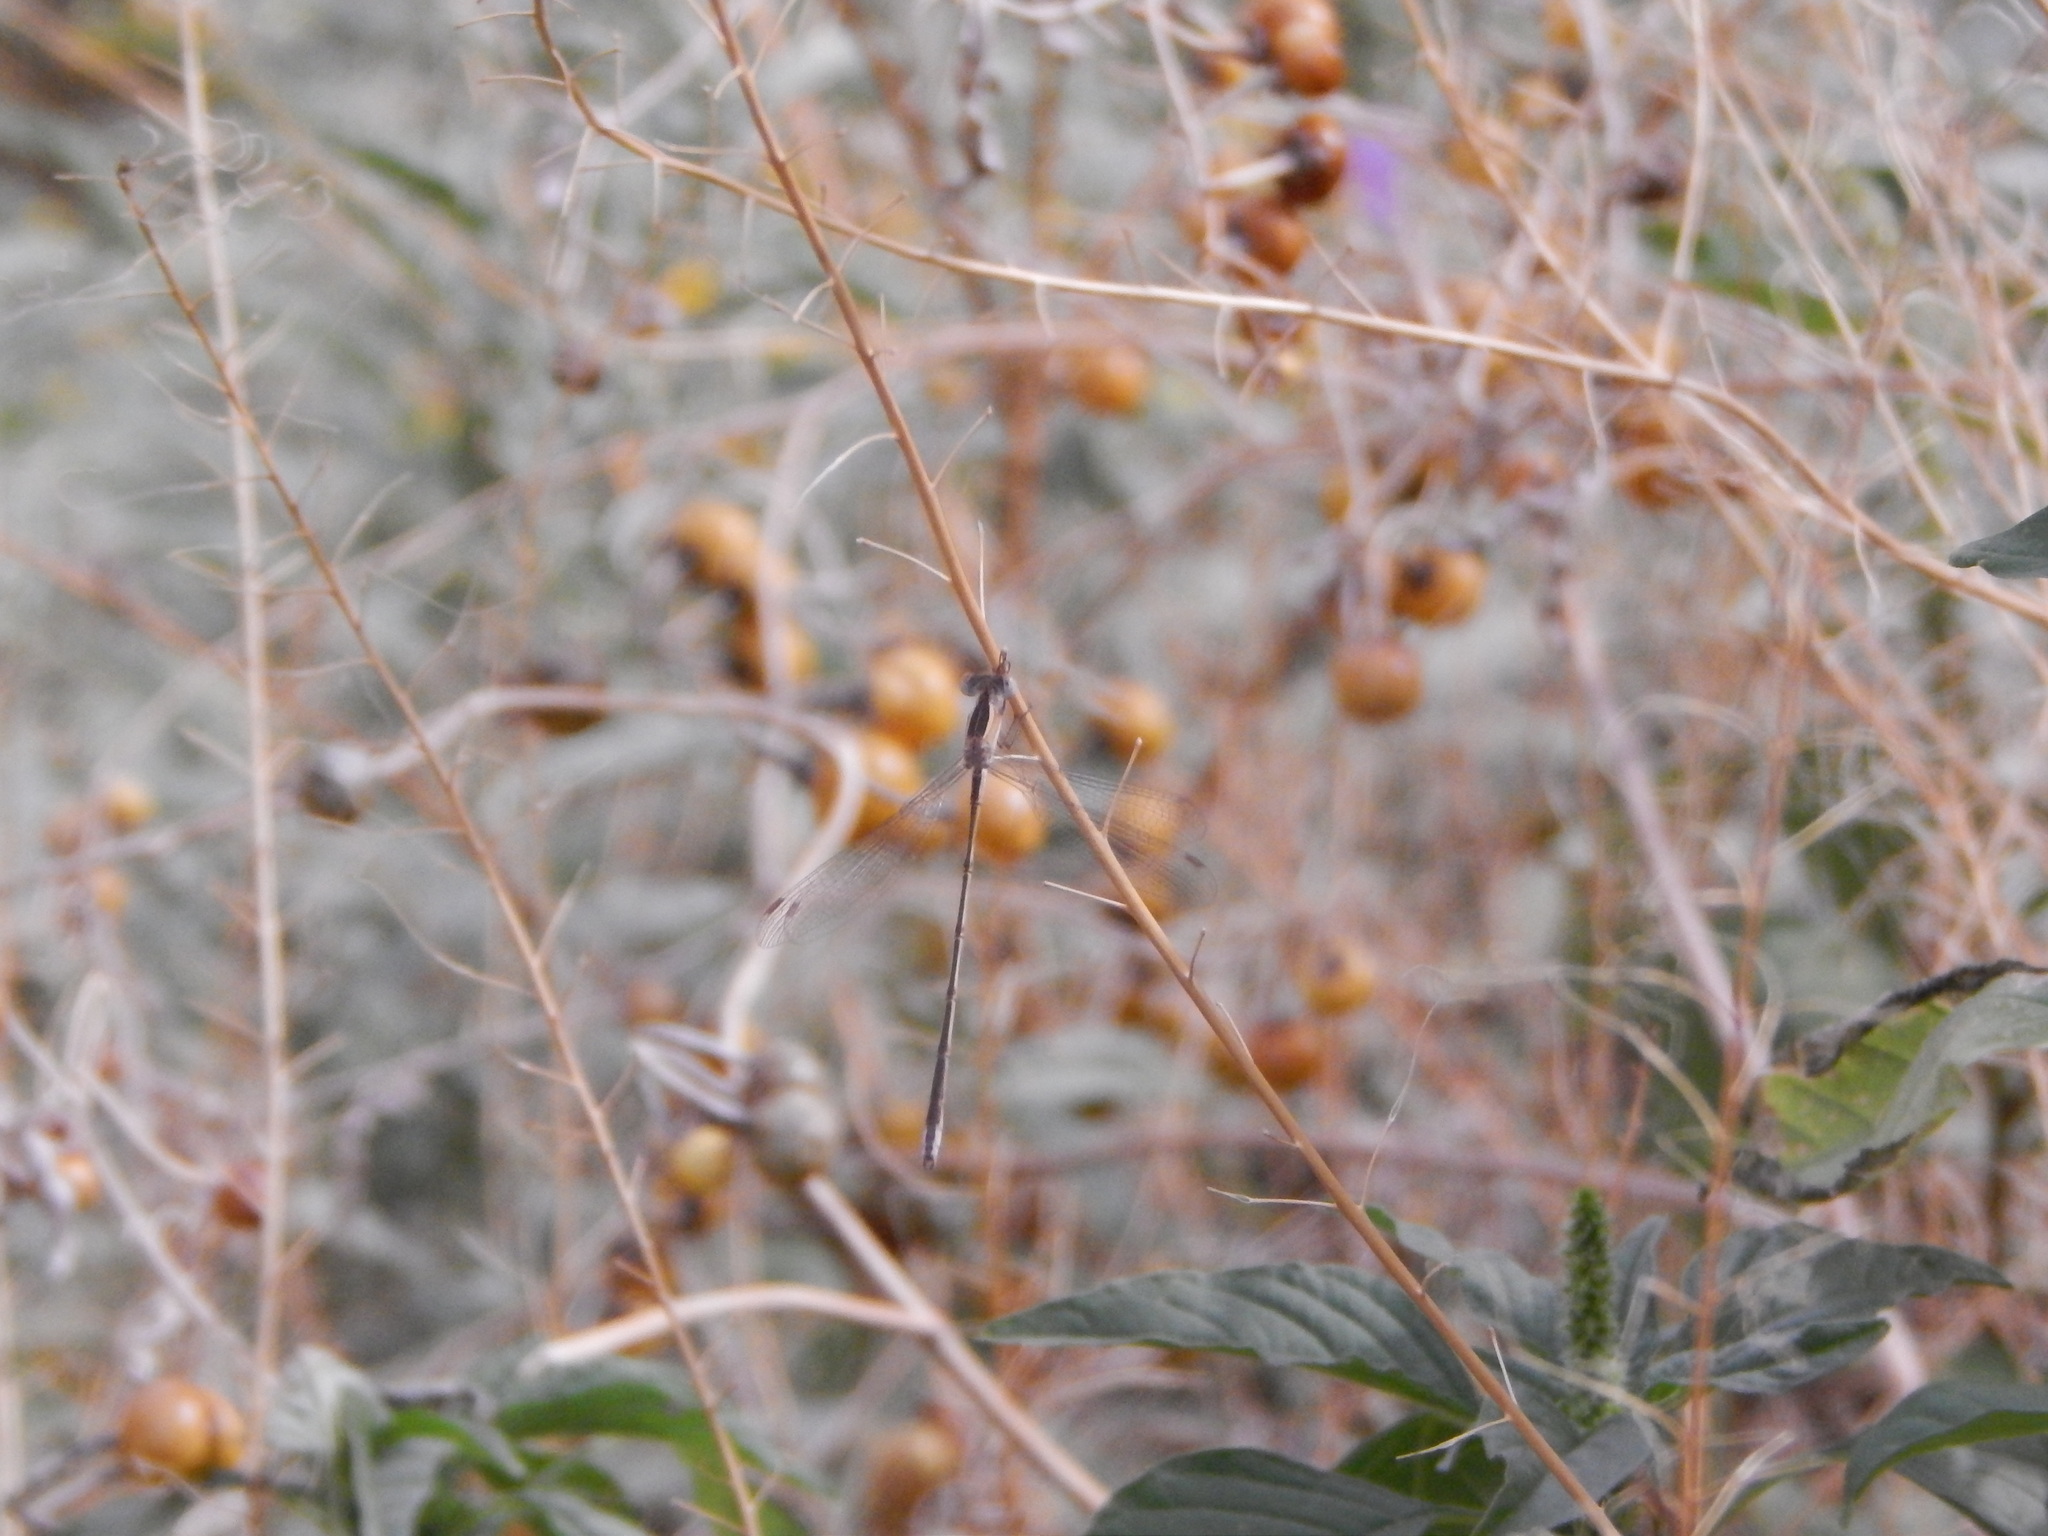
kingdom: Animalia
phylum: Arthropoda
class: Insecta
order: Odonata
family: Lestidae
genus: Lestes
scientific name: Lestes alacer
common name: Plateau spreadwing
